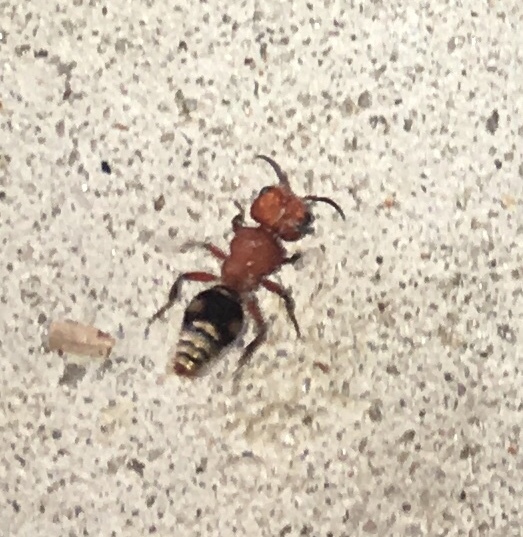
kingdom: Animalia
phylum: Arthropoda
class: Insecta
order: Hymenoptera
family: Mutillidae
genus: Pseudomethoca
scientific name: Pseudomethoca wickhami
